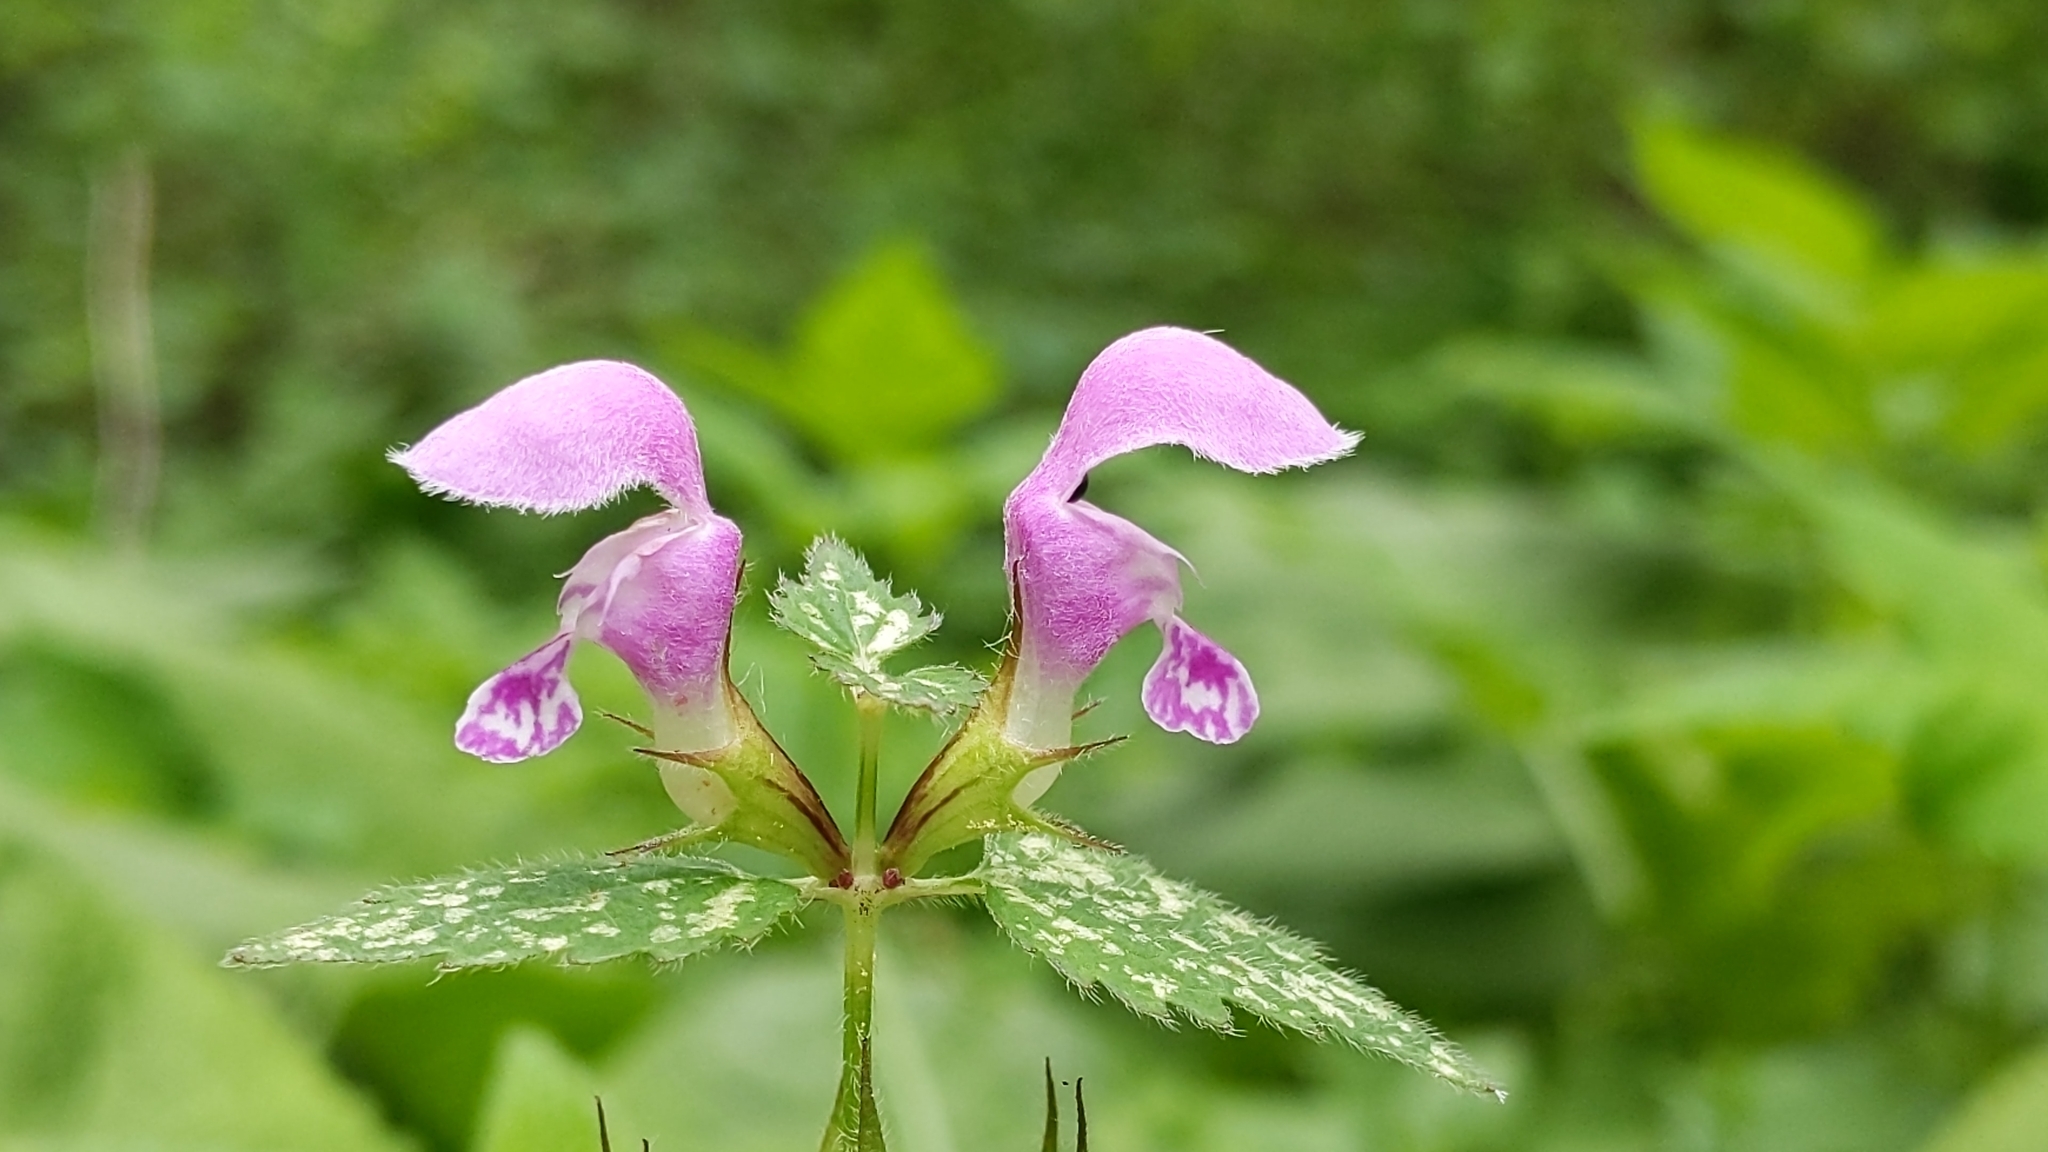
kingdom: Plantae
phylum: Tracheophyta
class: Magnoliopsida
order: Lamiales
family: Lamiaceae
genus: Lamium
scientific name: Lamium maculatum
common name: Spotted dead-nettle
